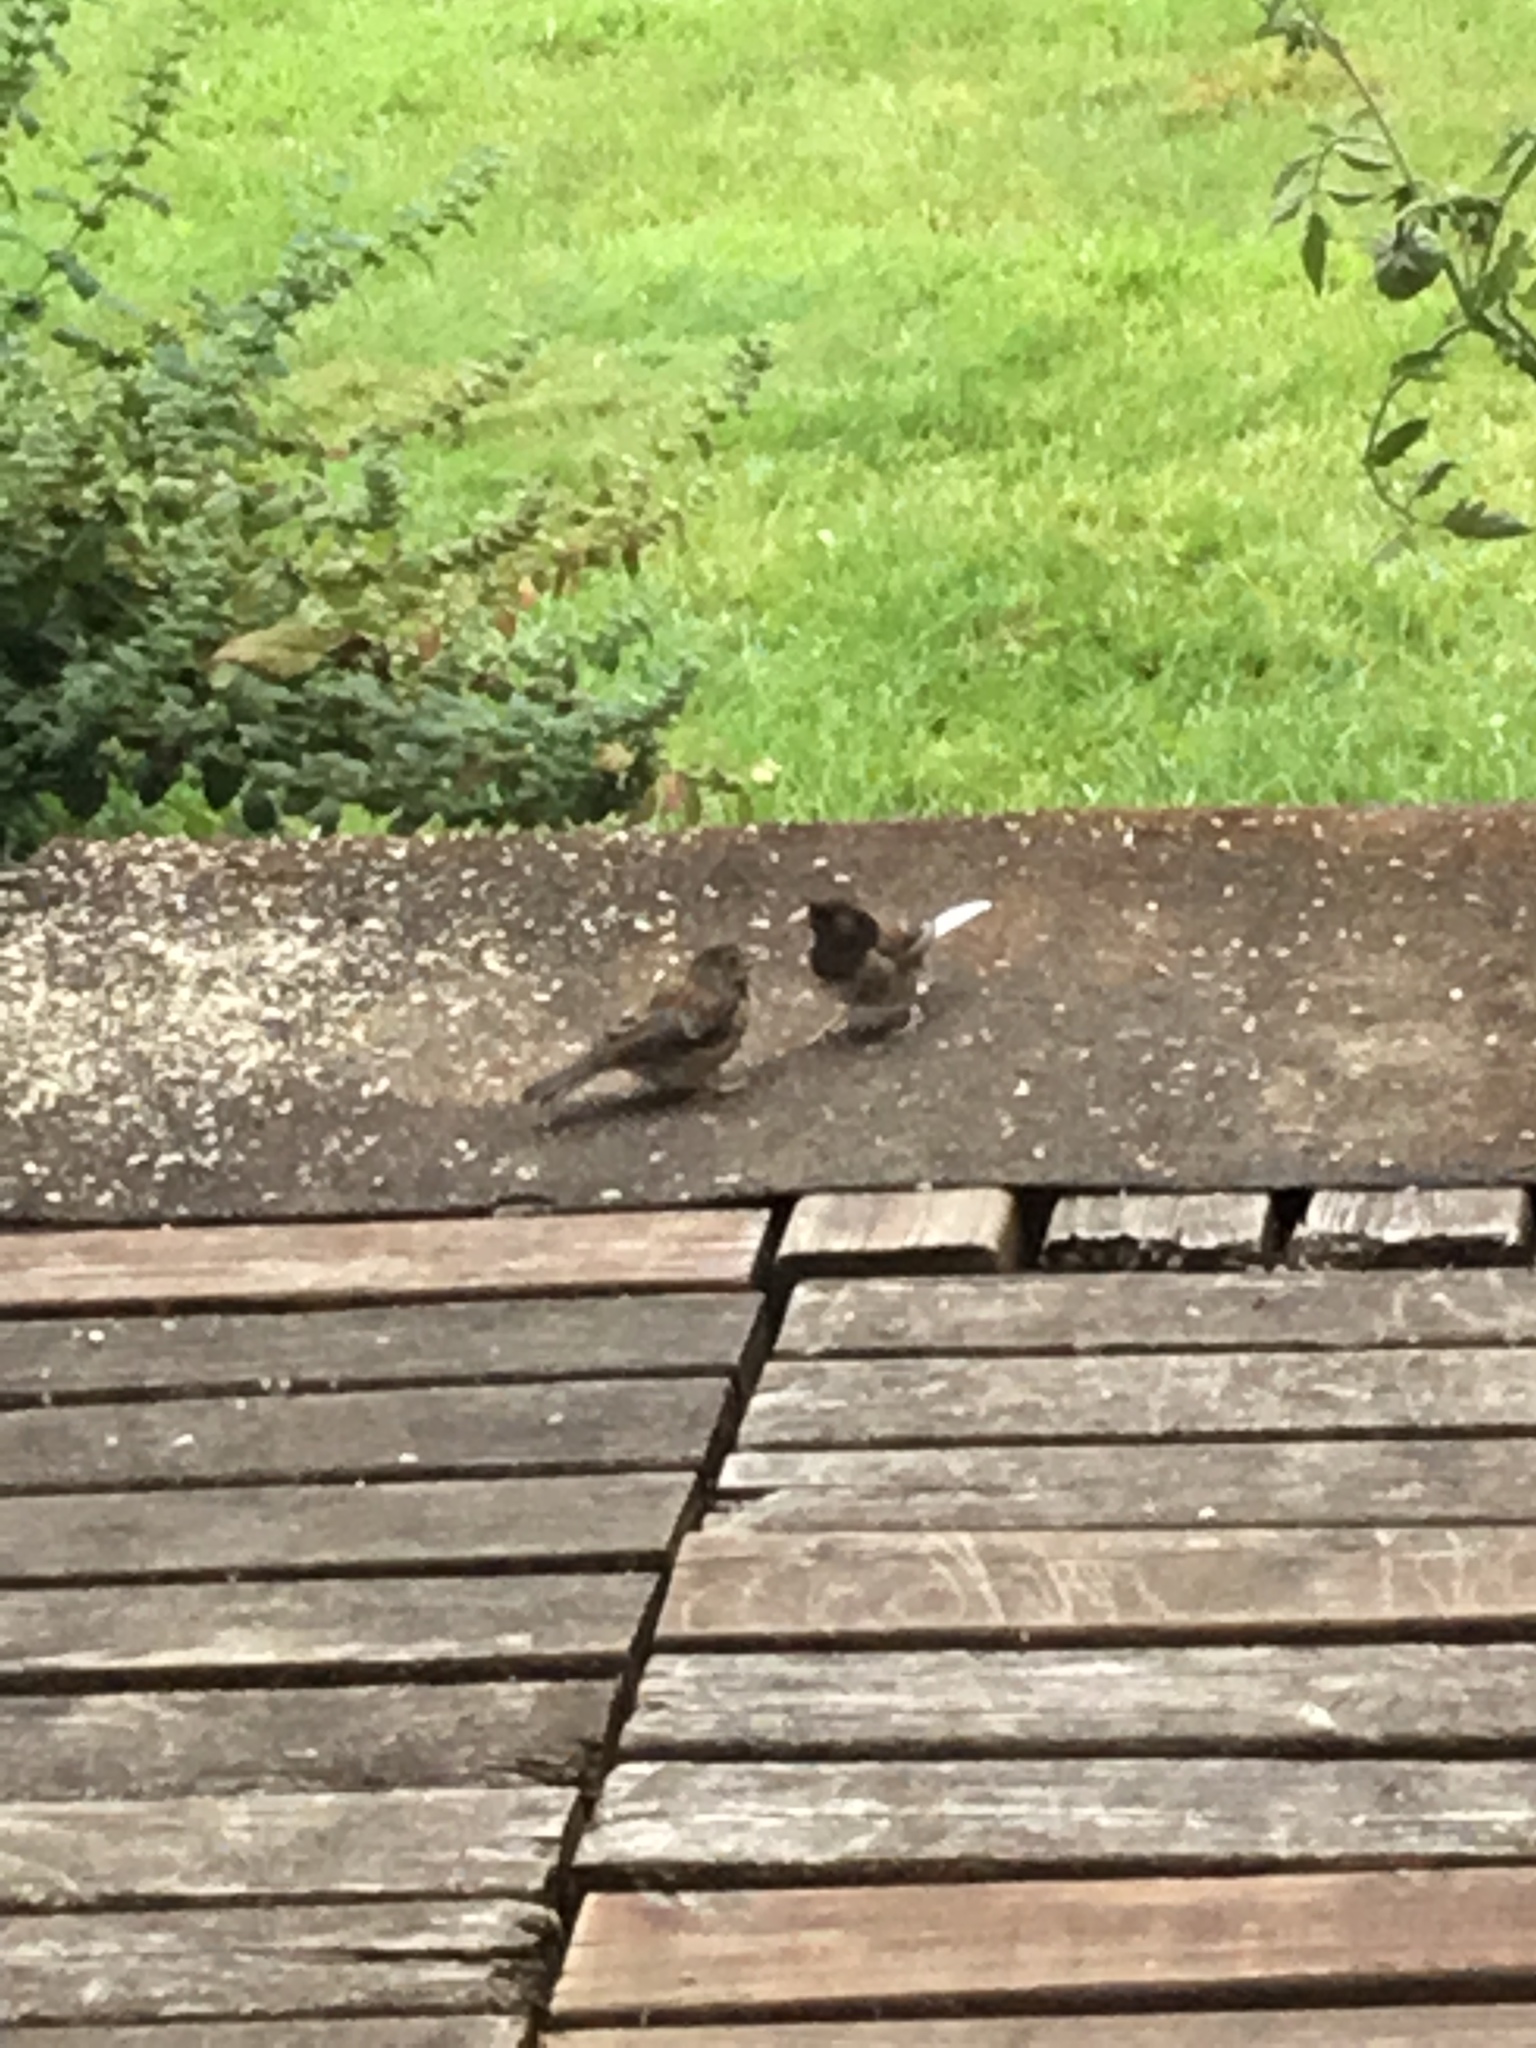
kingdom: Animalia
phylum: Chordata
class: Aves
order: Passeriformes
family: Passerellidae
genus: Junco
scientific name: Junco hyemalis
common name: Dark-eyed junco
